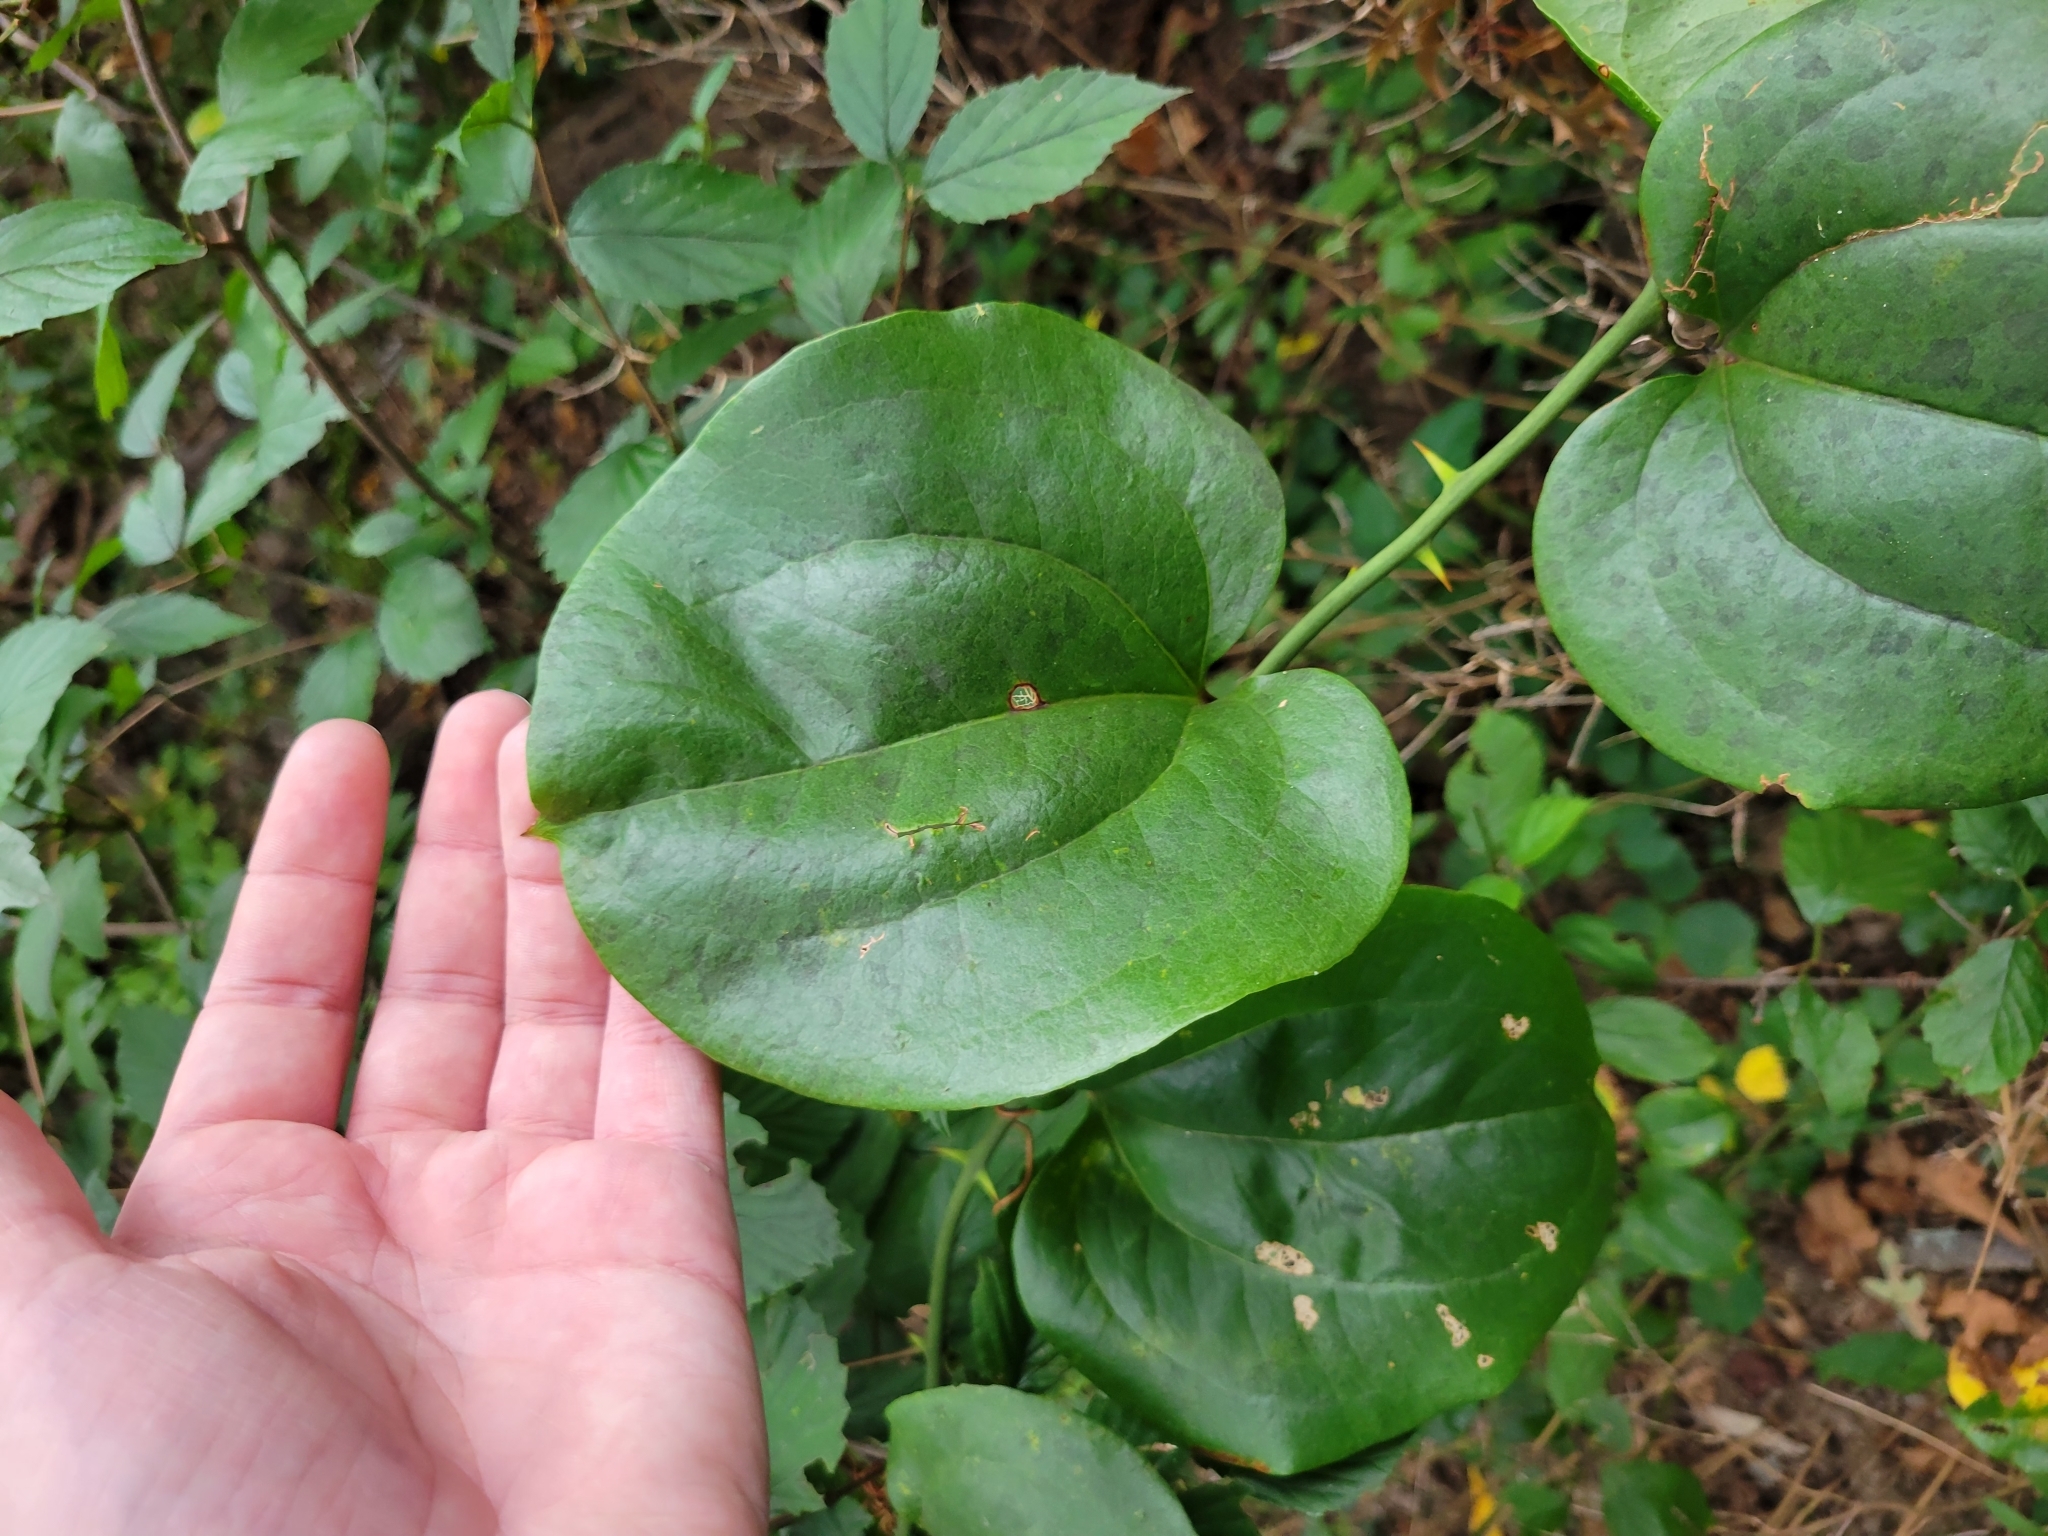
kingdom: Plantae
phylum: Tracheophyta
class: Liliopsida
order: Liliales
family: Smilacaceae
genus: Smilax
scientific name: Smilax rotundifolia
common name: Bullbriar
